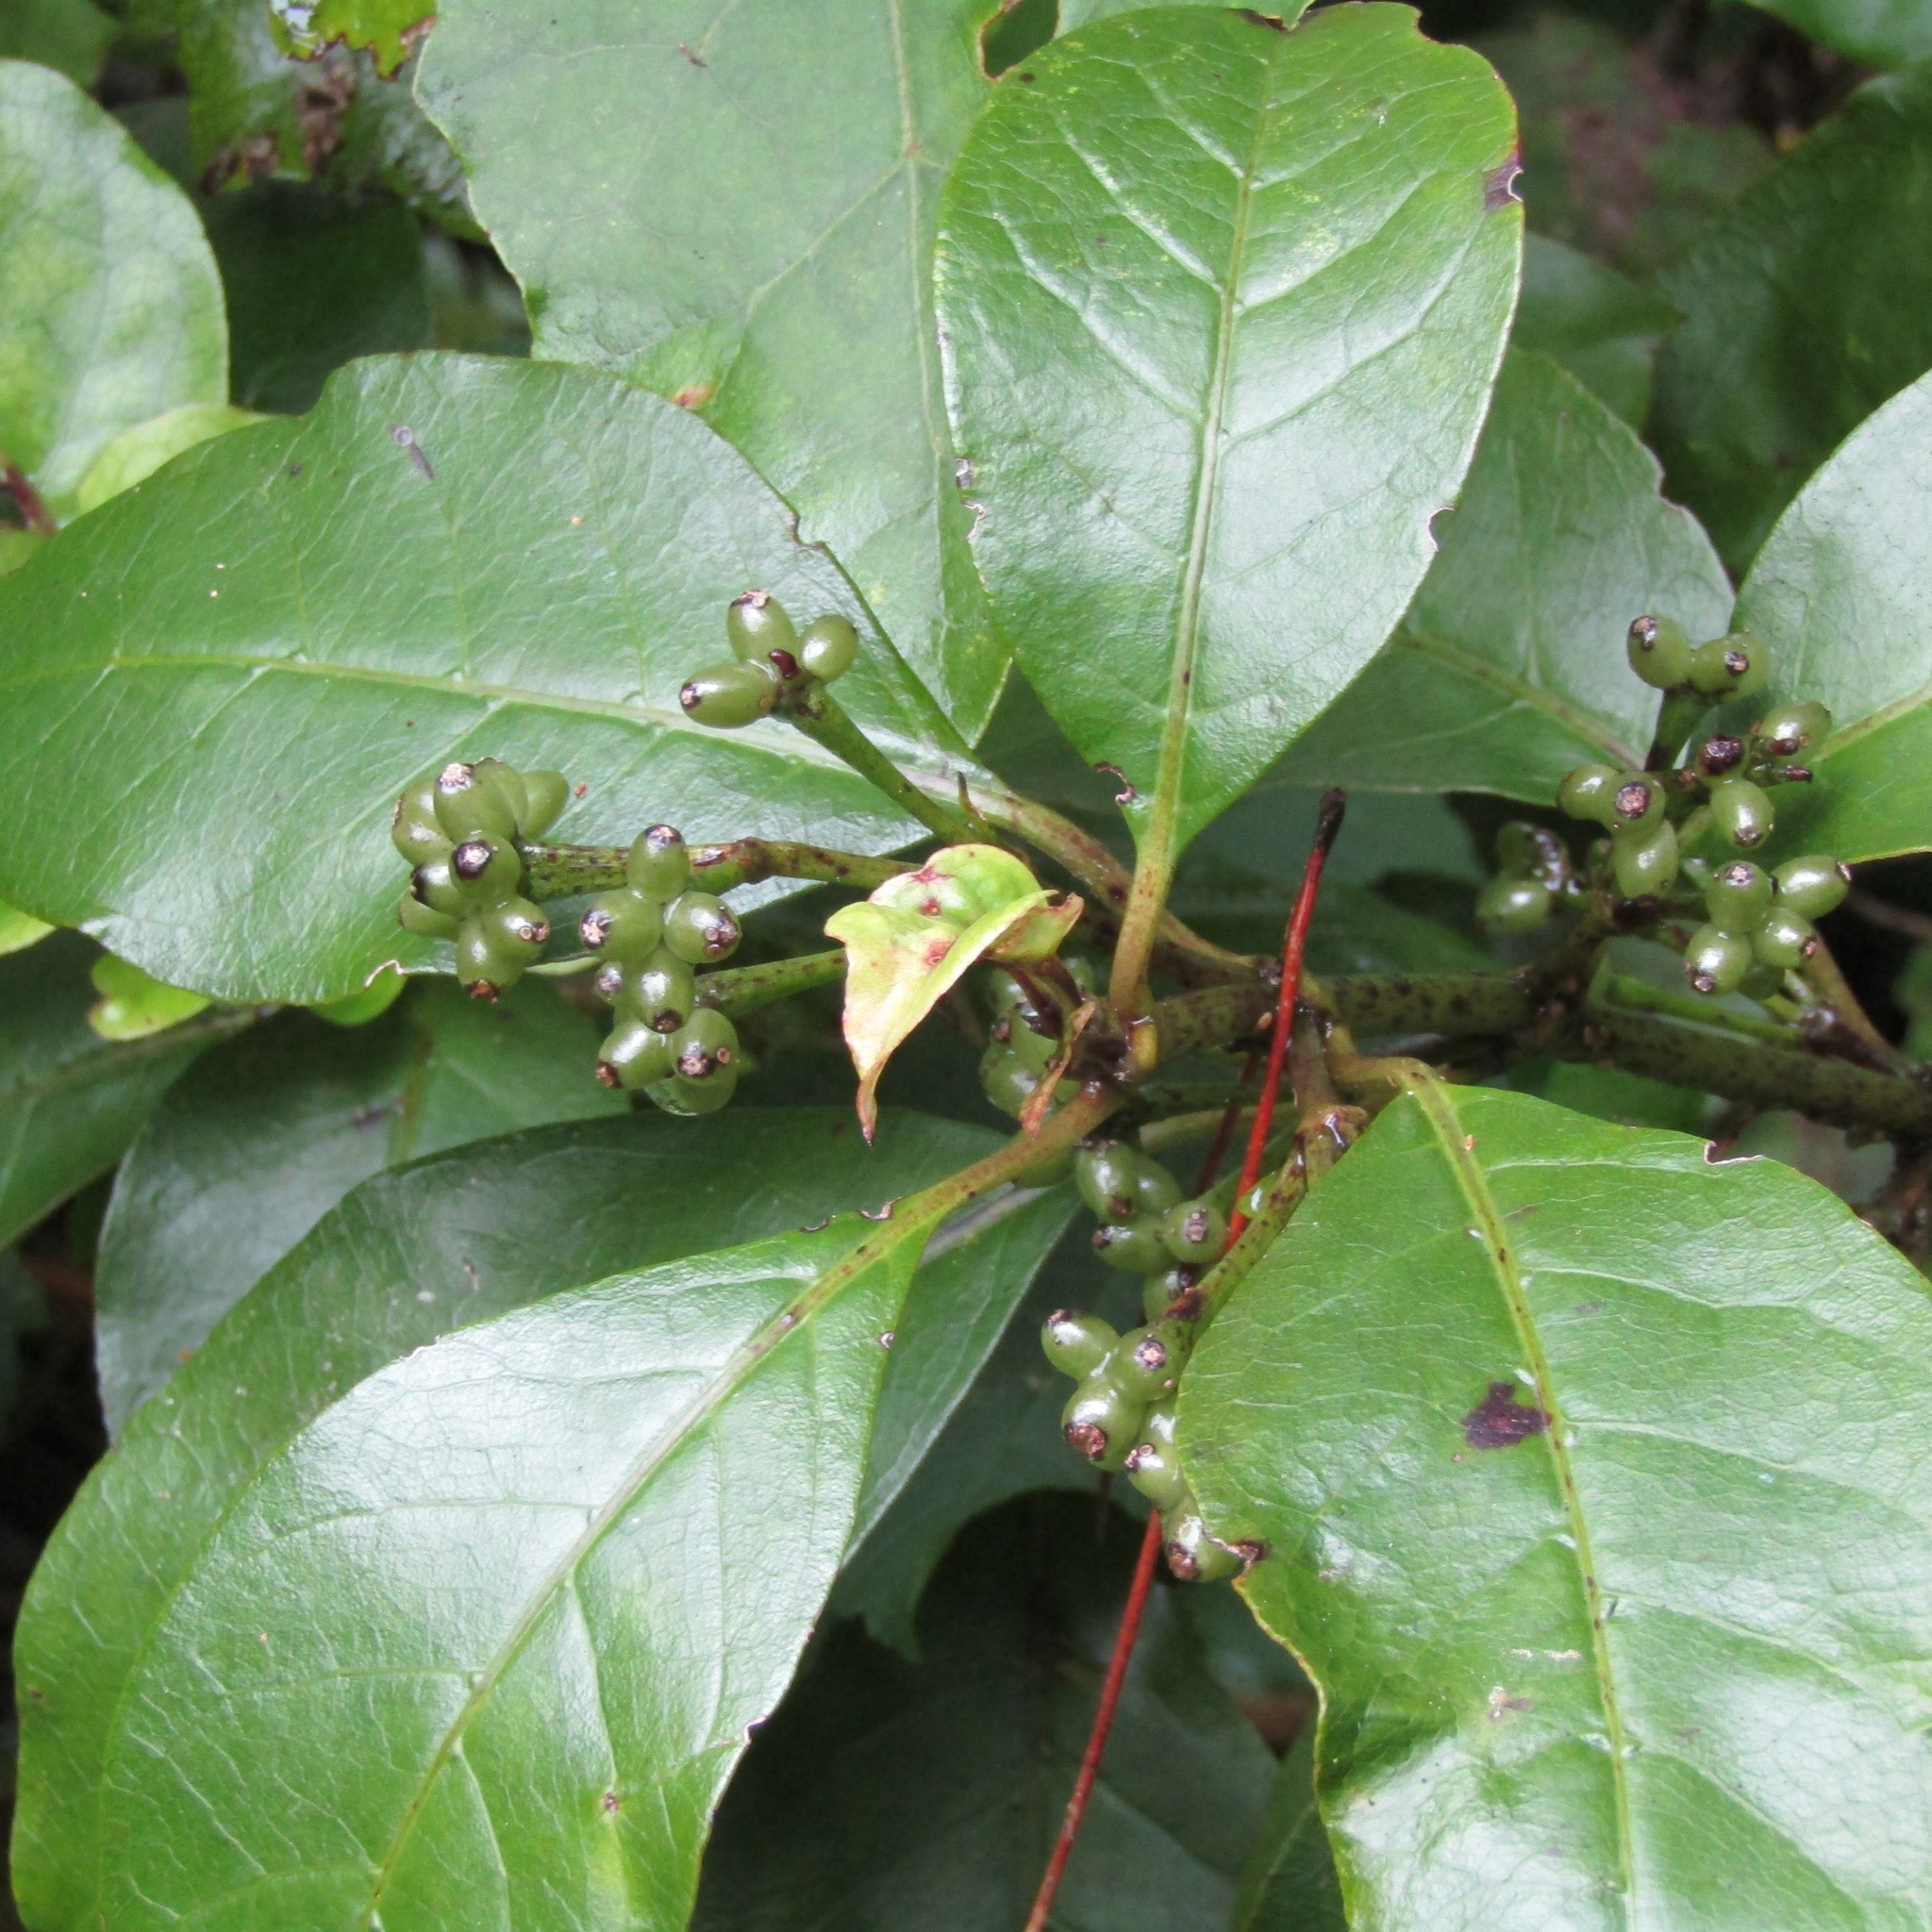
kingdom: Plantae
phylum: Tracheophyta
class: Magnoliopsida
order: Gentianales
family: Rubiaceae
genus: Coprosma
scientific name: Coprosma autumnalis
